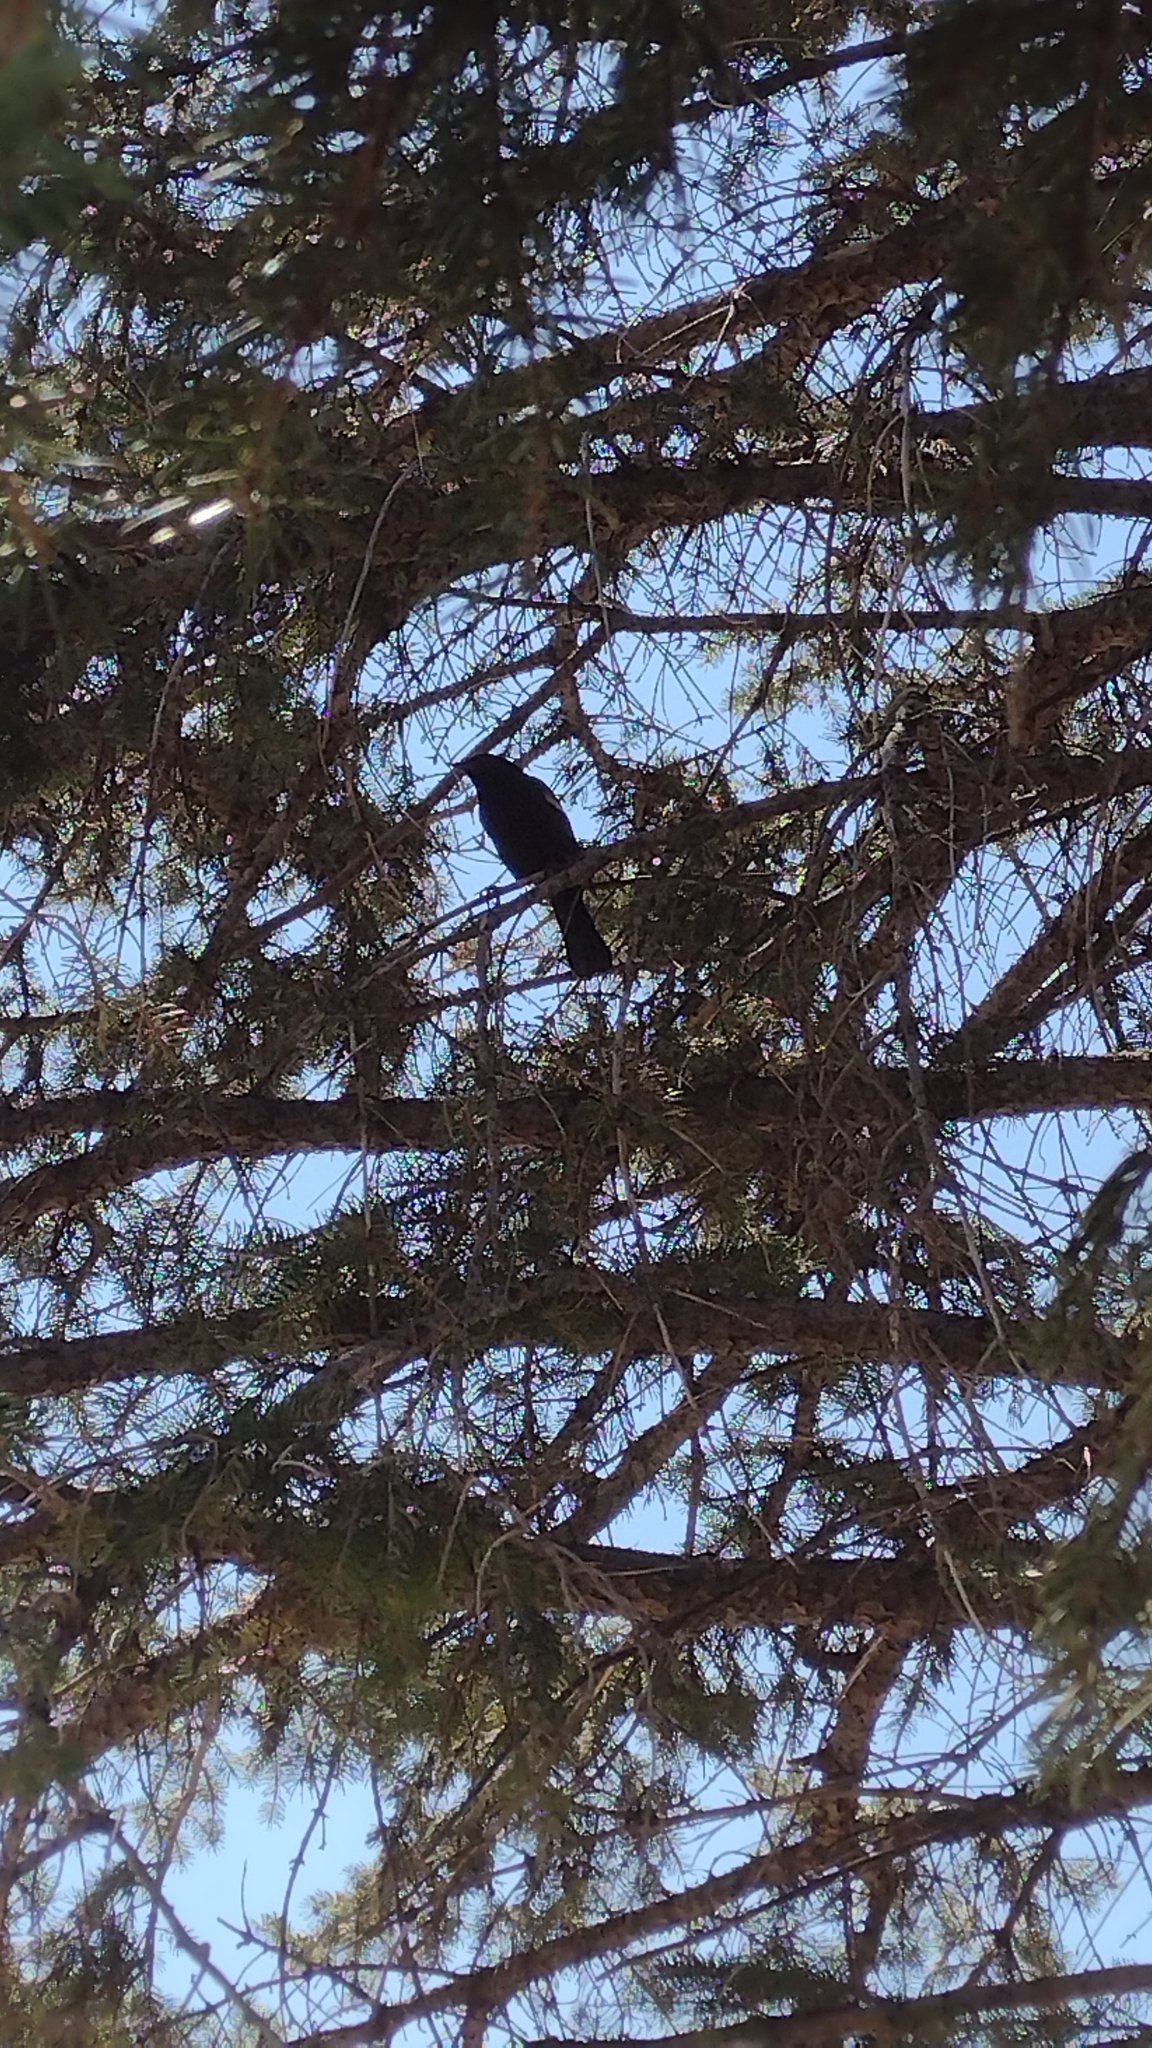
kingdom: Animalia
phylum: Chordata
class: Aves
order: Passeriformes
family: Icteridae
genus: Agelaius
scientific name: Agelaius phoeniceus
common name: Red-winged blackbird
